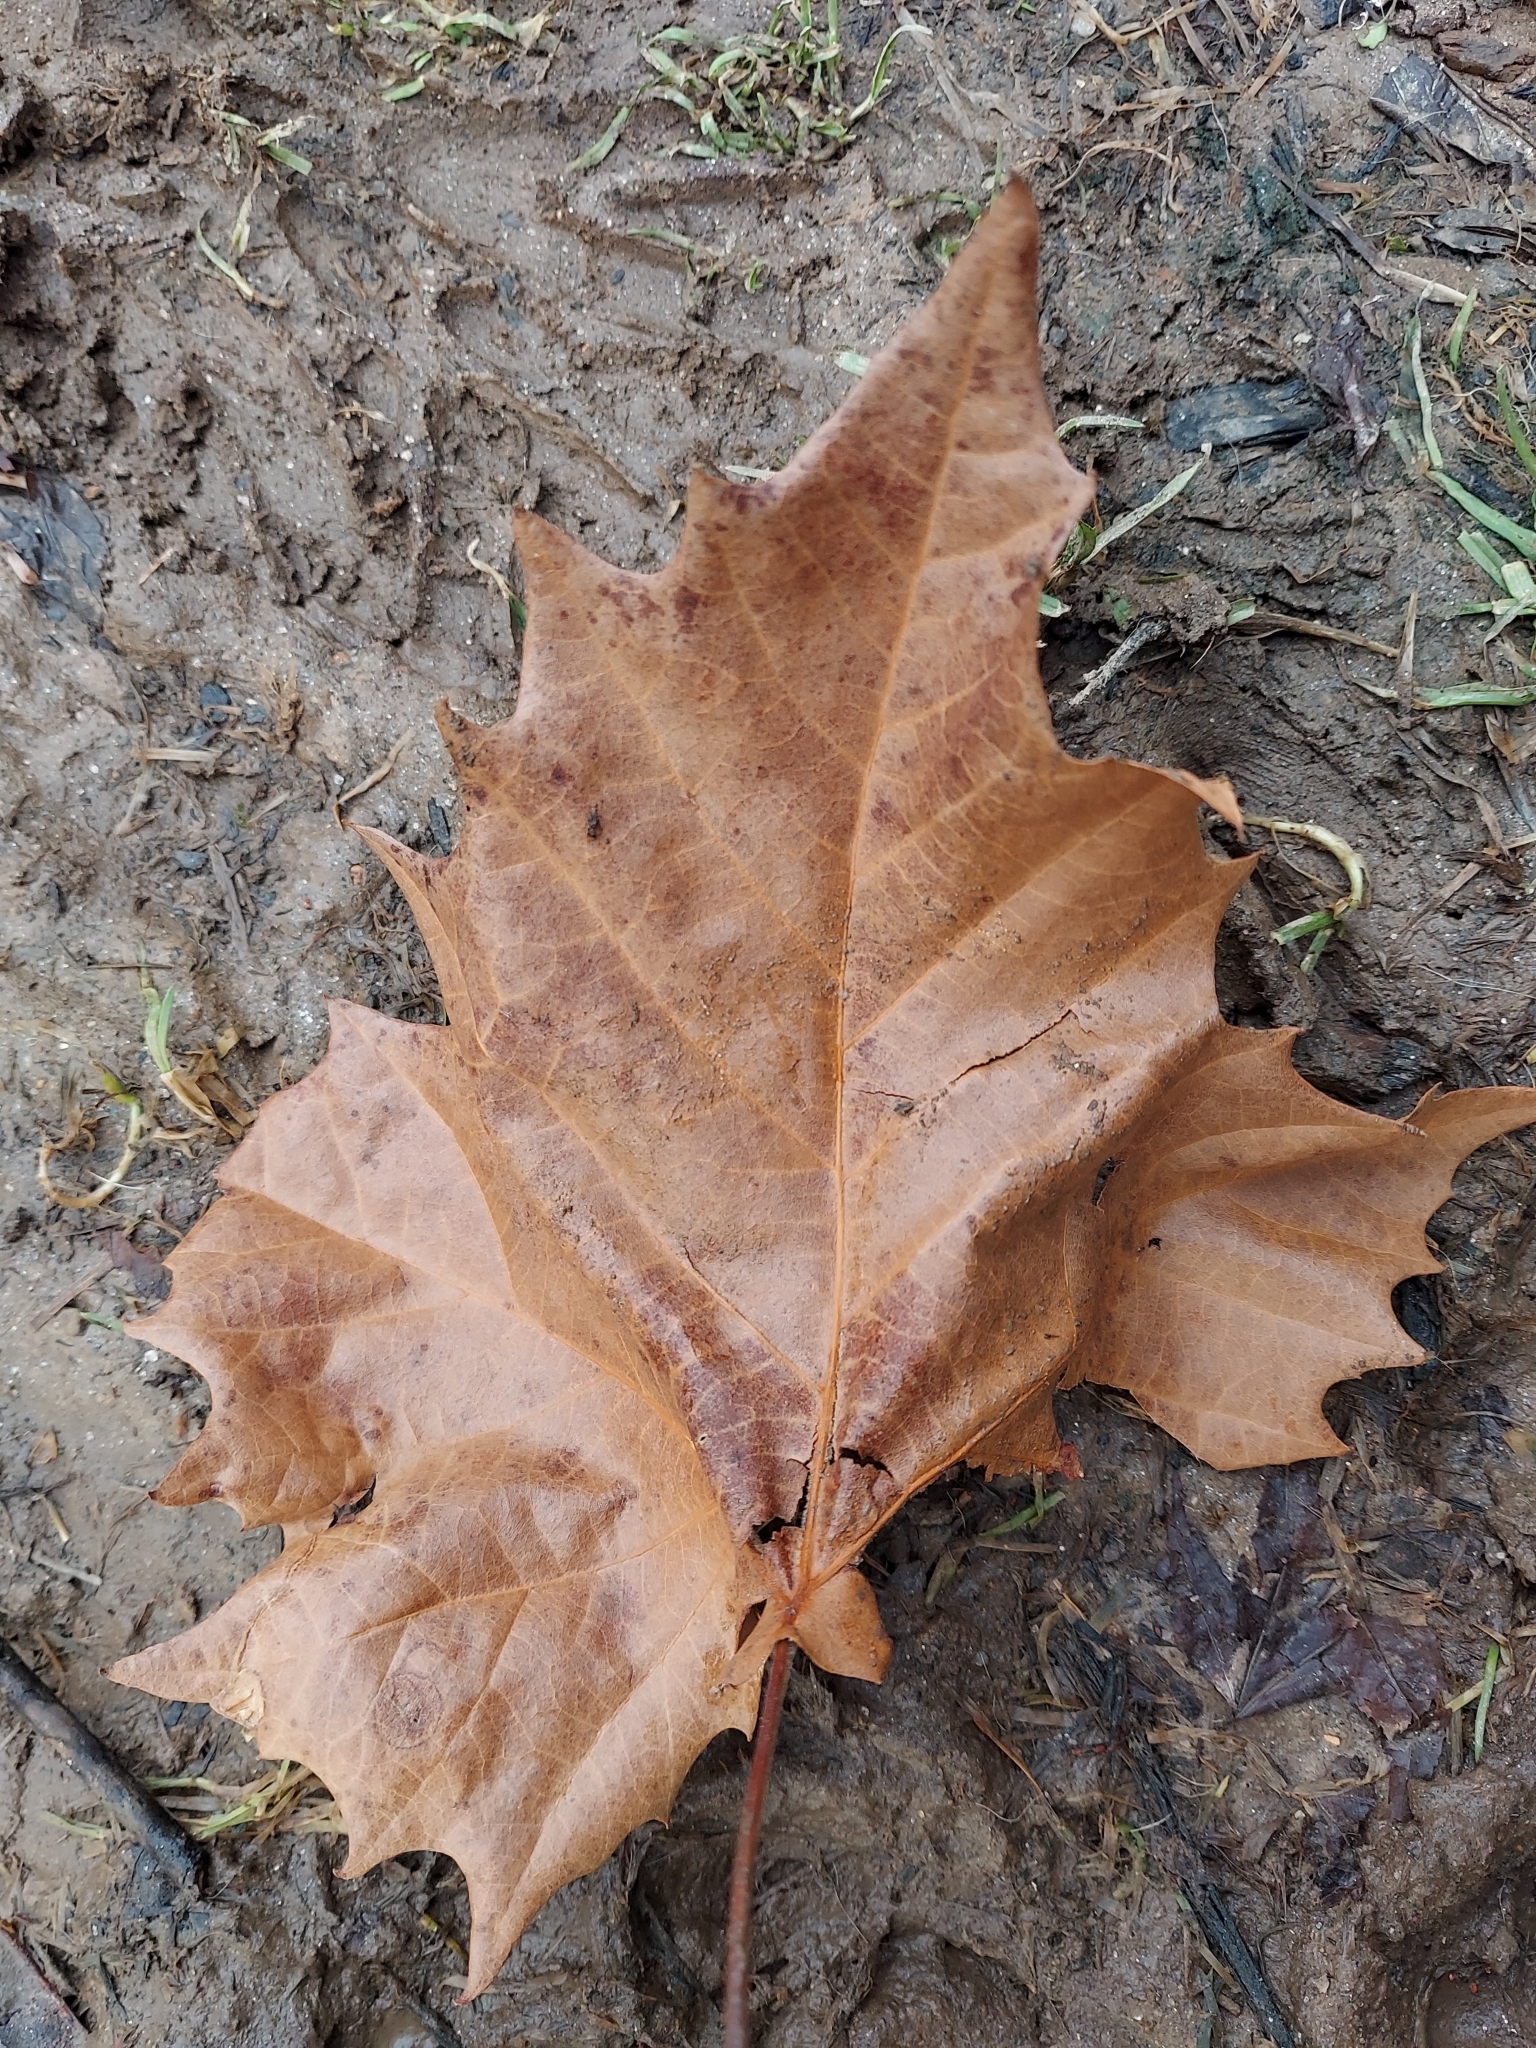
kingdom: Plantae
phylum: Tracheophyta
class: Magnoliopsida
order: Proteales
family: Platanaceae
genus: Platanus
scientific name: Platanus occidentalis
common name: American sycamore
